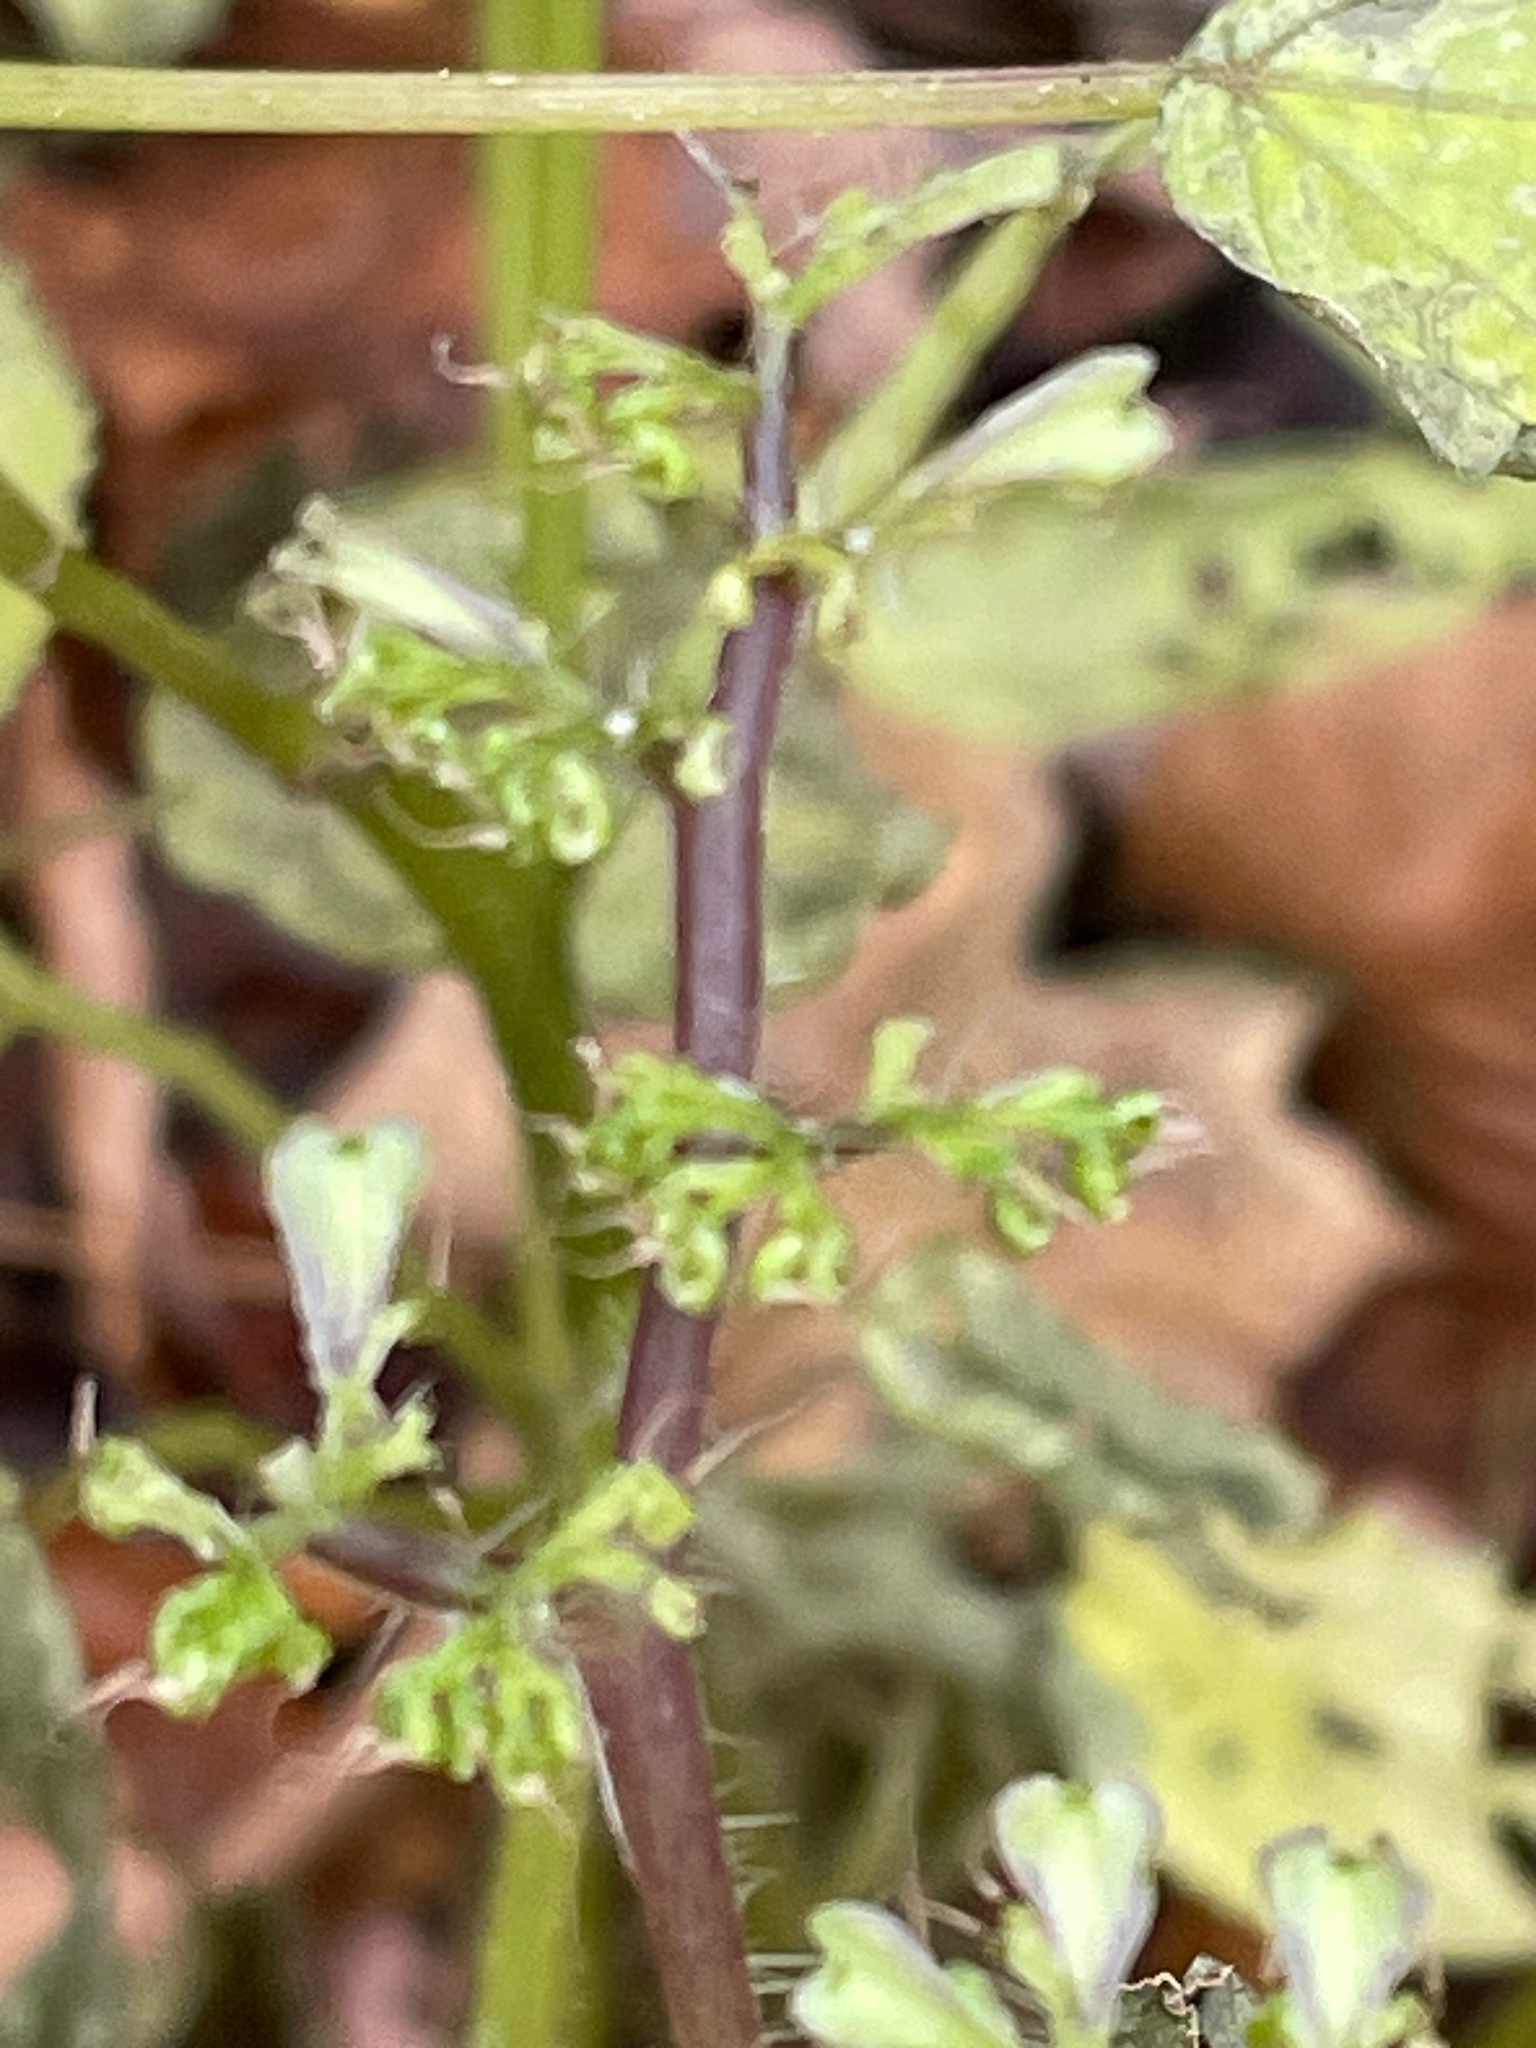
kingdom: Plantae
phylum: Tracheophyta
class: Magnoliopsida
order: Rosales
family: Urticaceae
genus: Laportea
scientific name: Laportea canadensis
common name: Canada nettle
